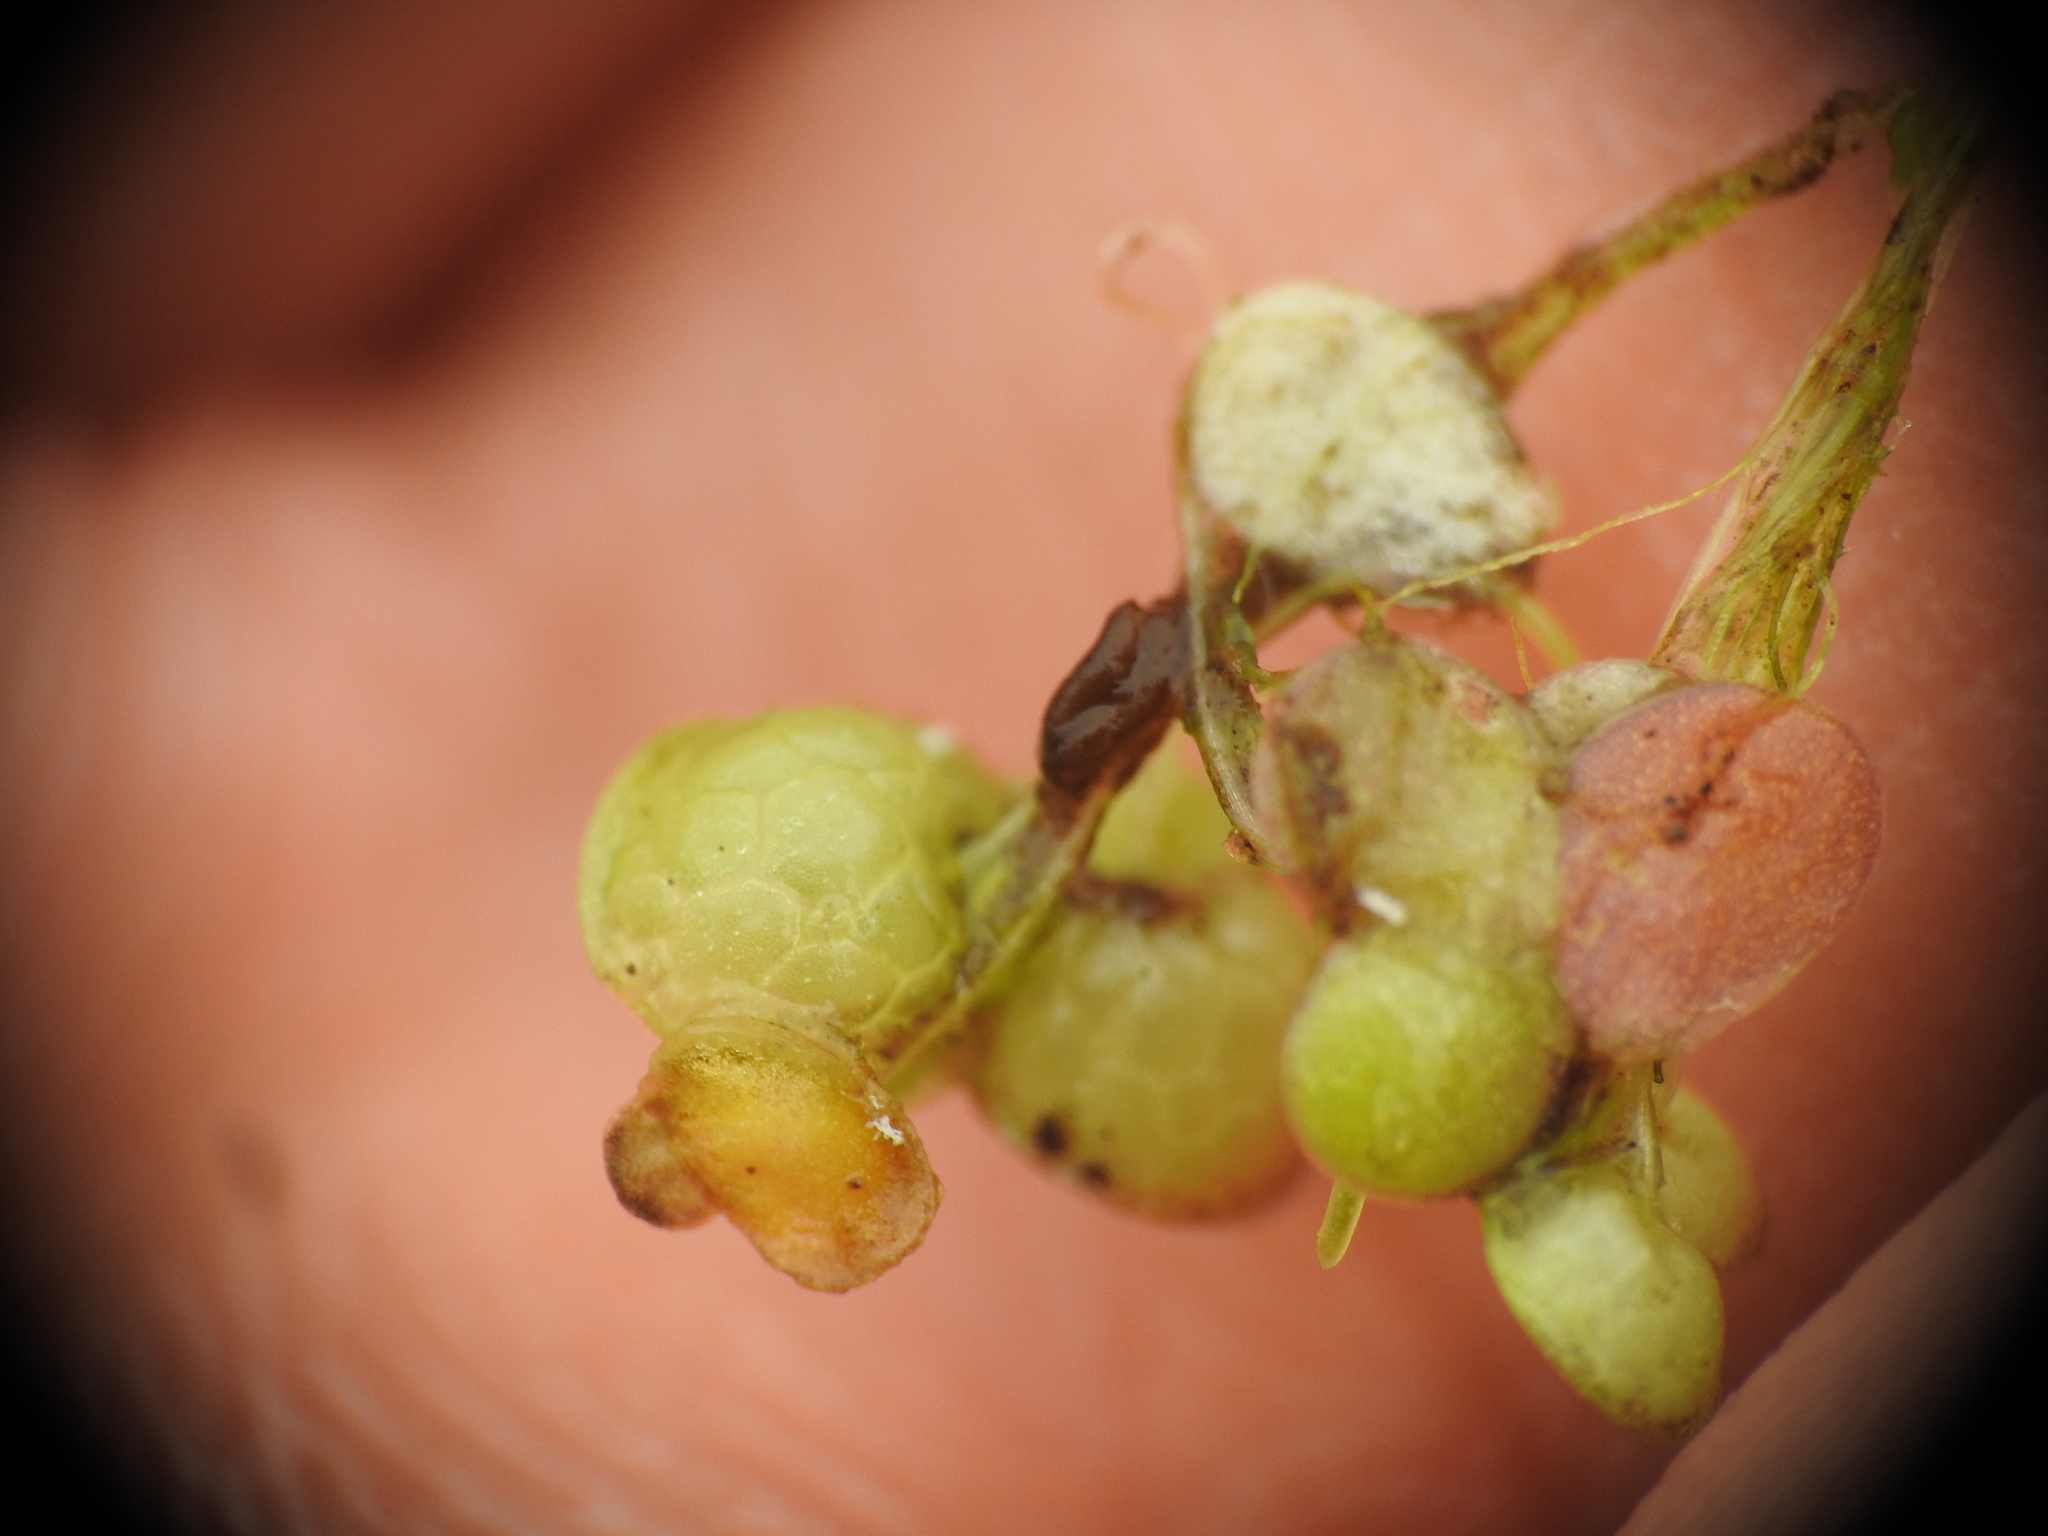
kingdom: Plantae
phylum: Tracheophyta
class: Liliopsida
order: Alismatales
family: Araceae
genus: Lemna
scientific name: Lemna gibba
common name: Fat duckweed
